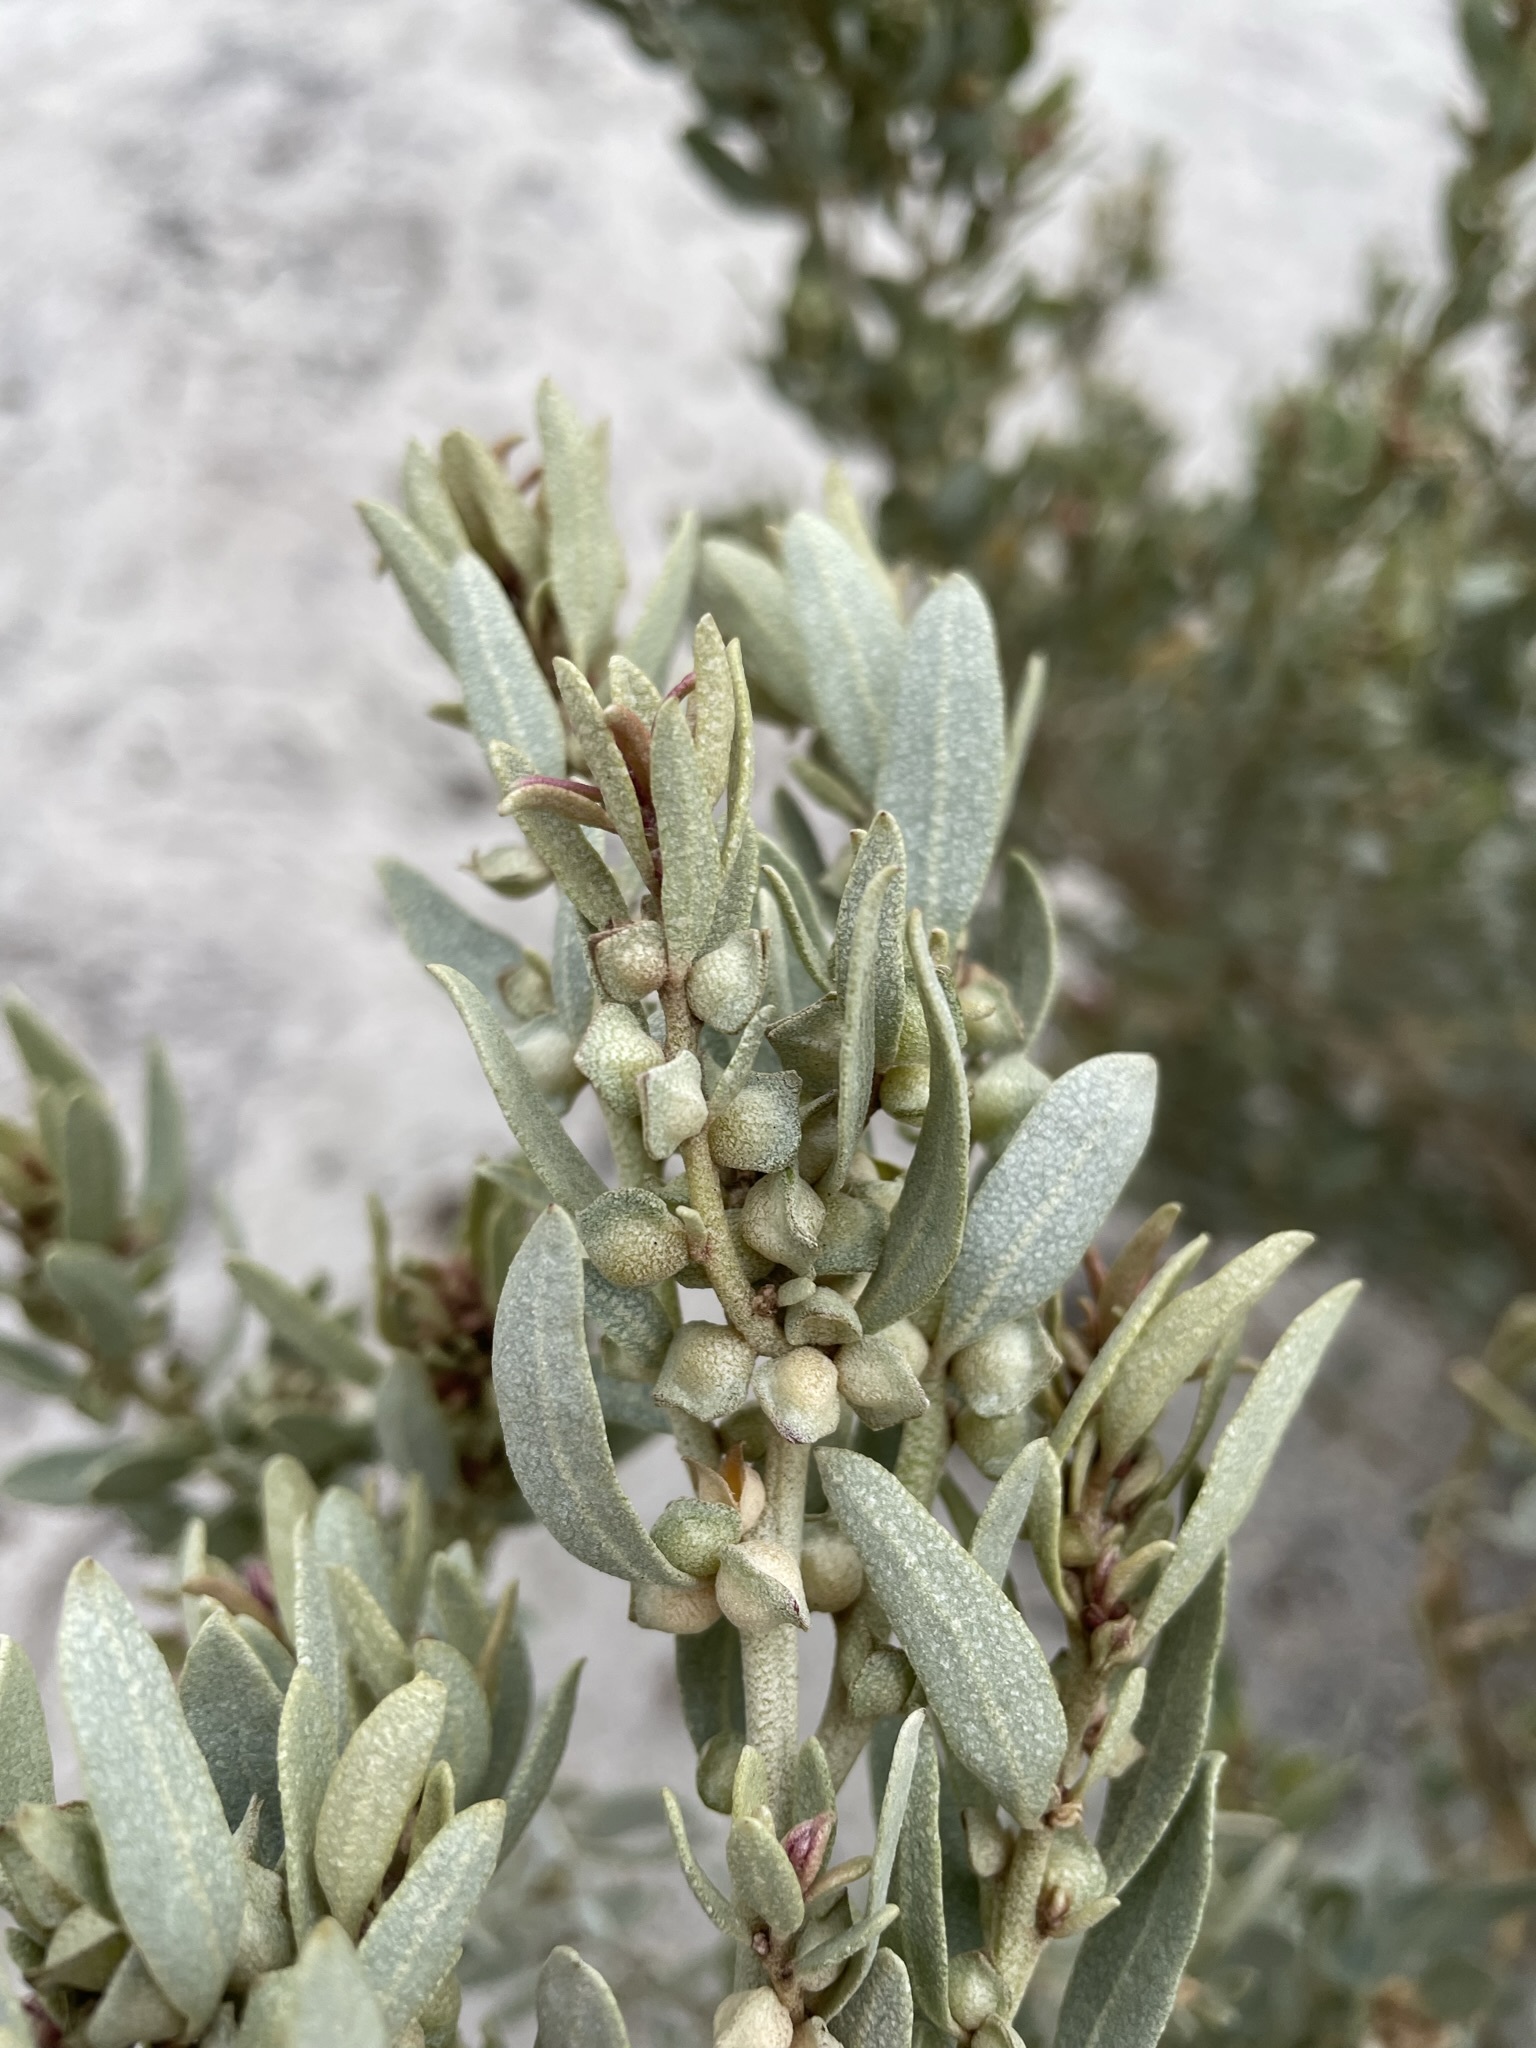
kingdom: Plantae
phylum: Tracheophyta
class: Magnoliopsida
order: Caryophyllales
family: Amaranthaceae
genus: Atriplex
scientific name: Atriplex cinerea
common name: Grey saltbush
